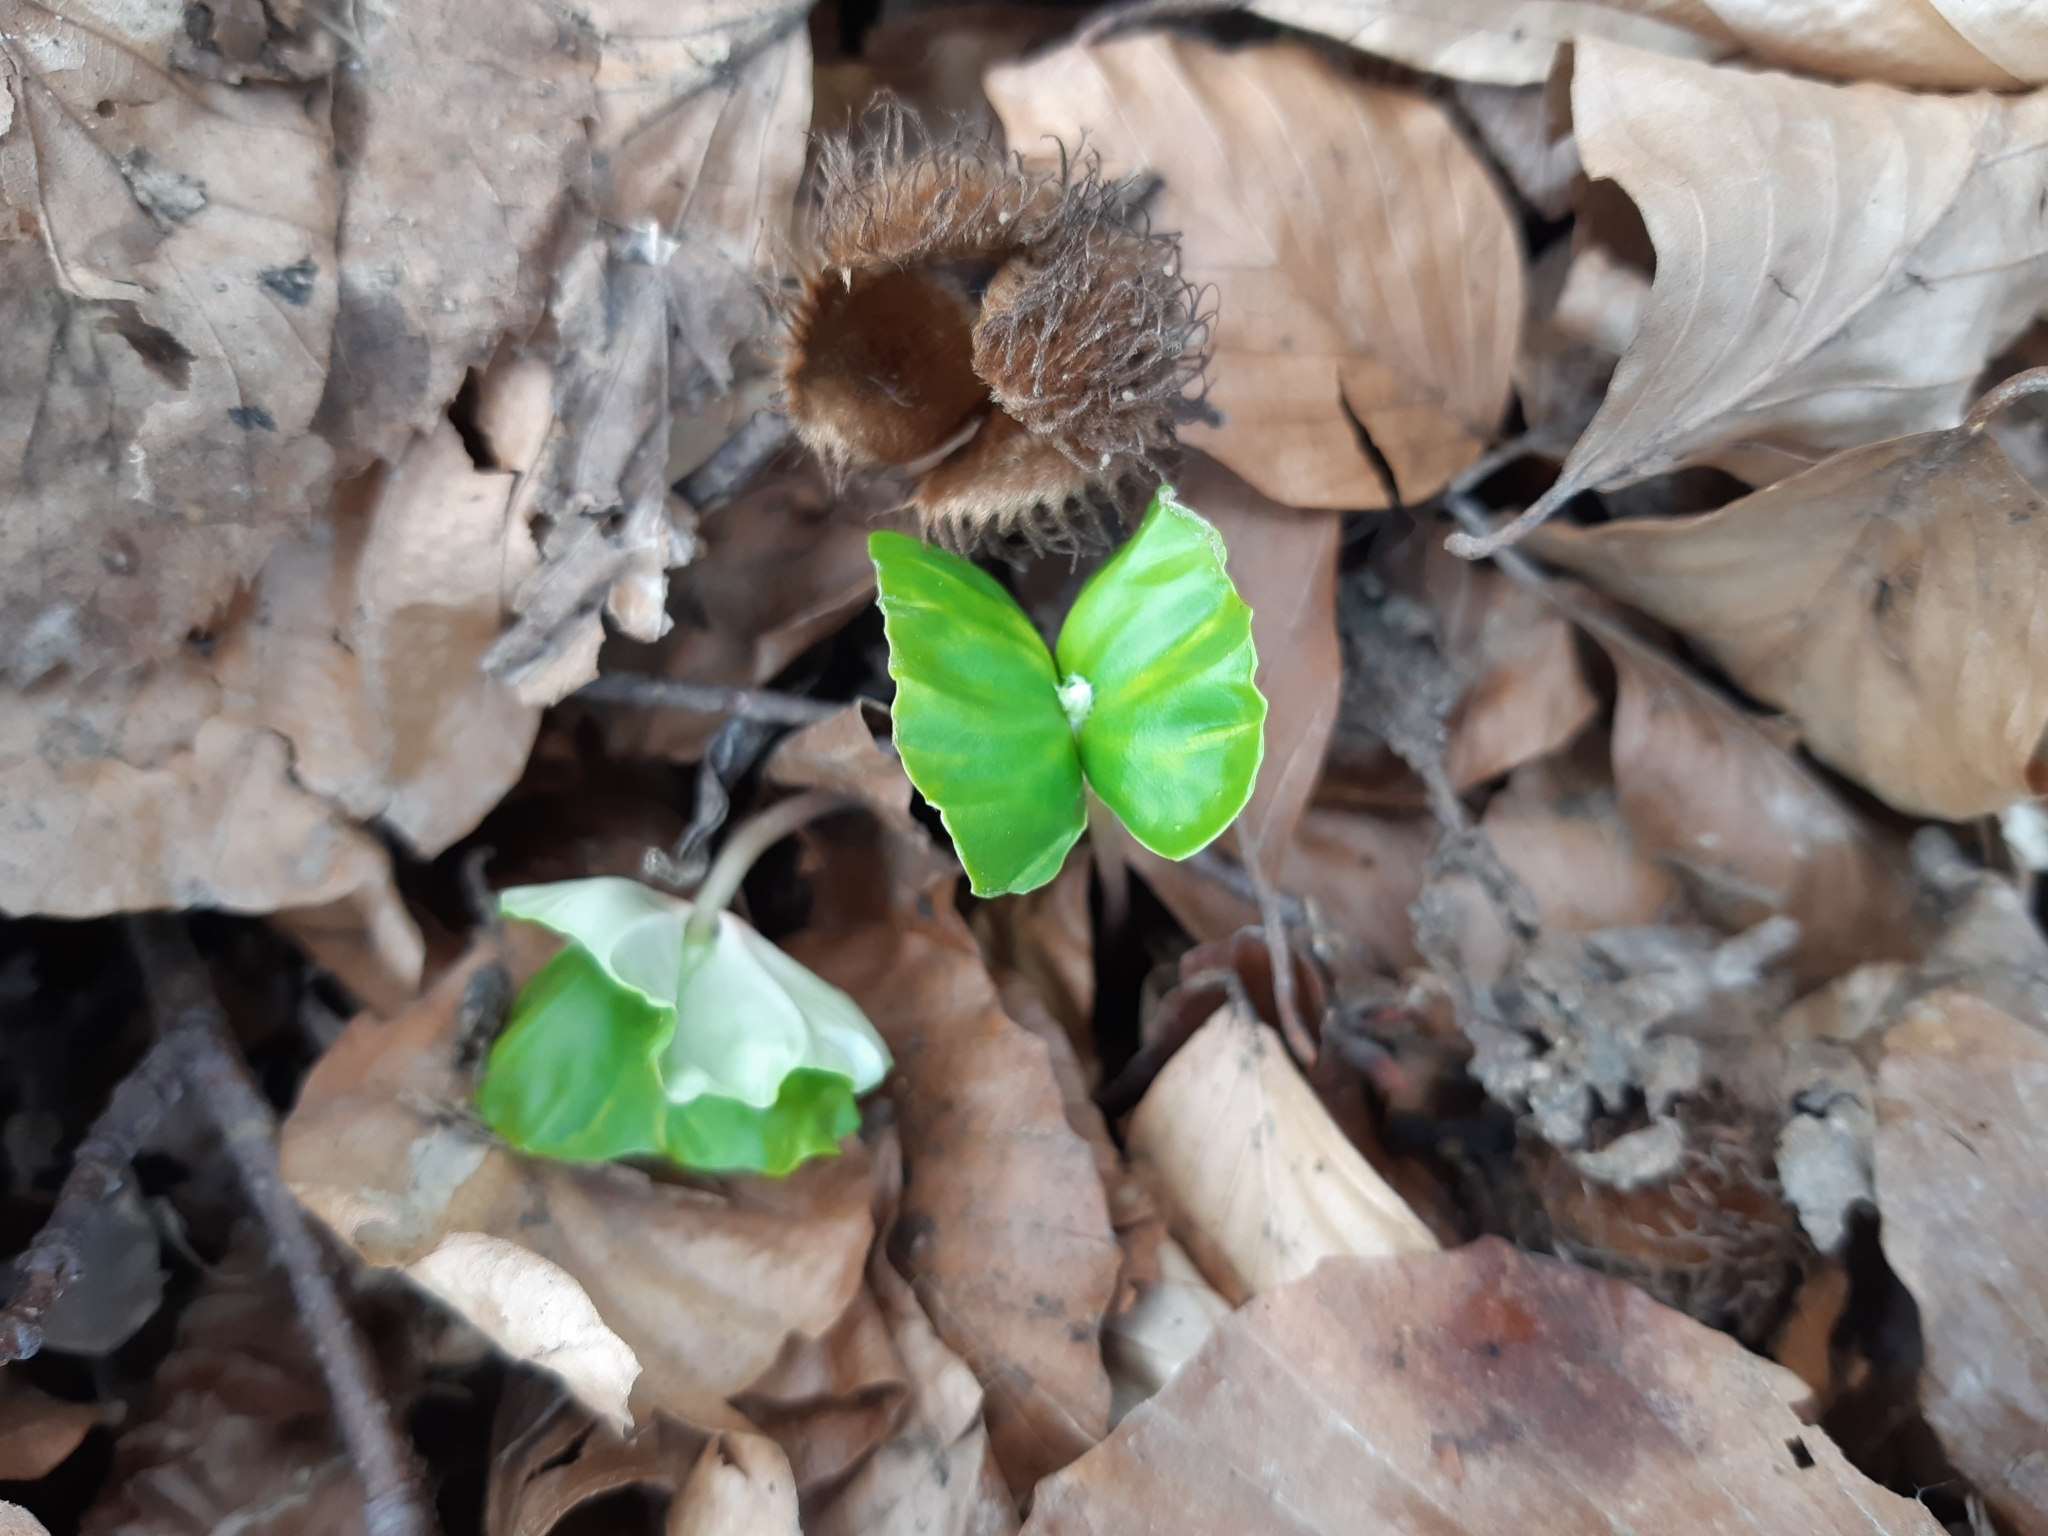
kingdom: Plantae
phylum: Tracheophyta
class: Magnoliopsida
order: Fagales
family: Fagaceae
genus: Fagus
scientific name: Fagus sylvatica
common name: Beech
